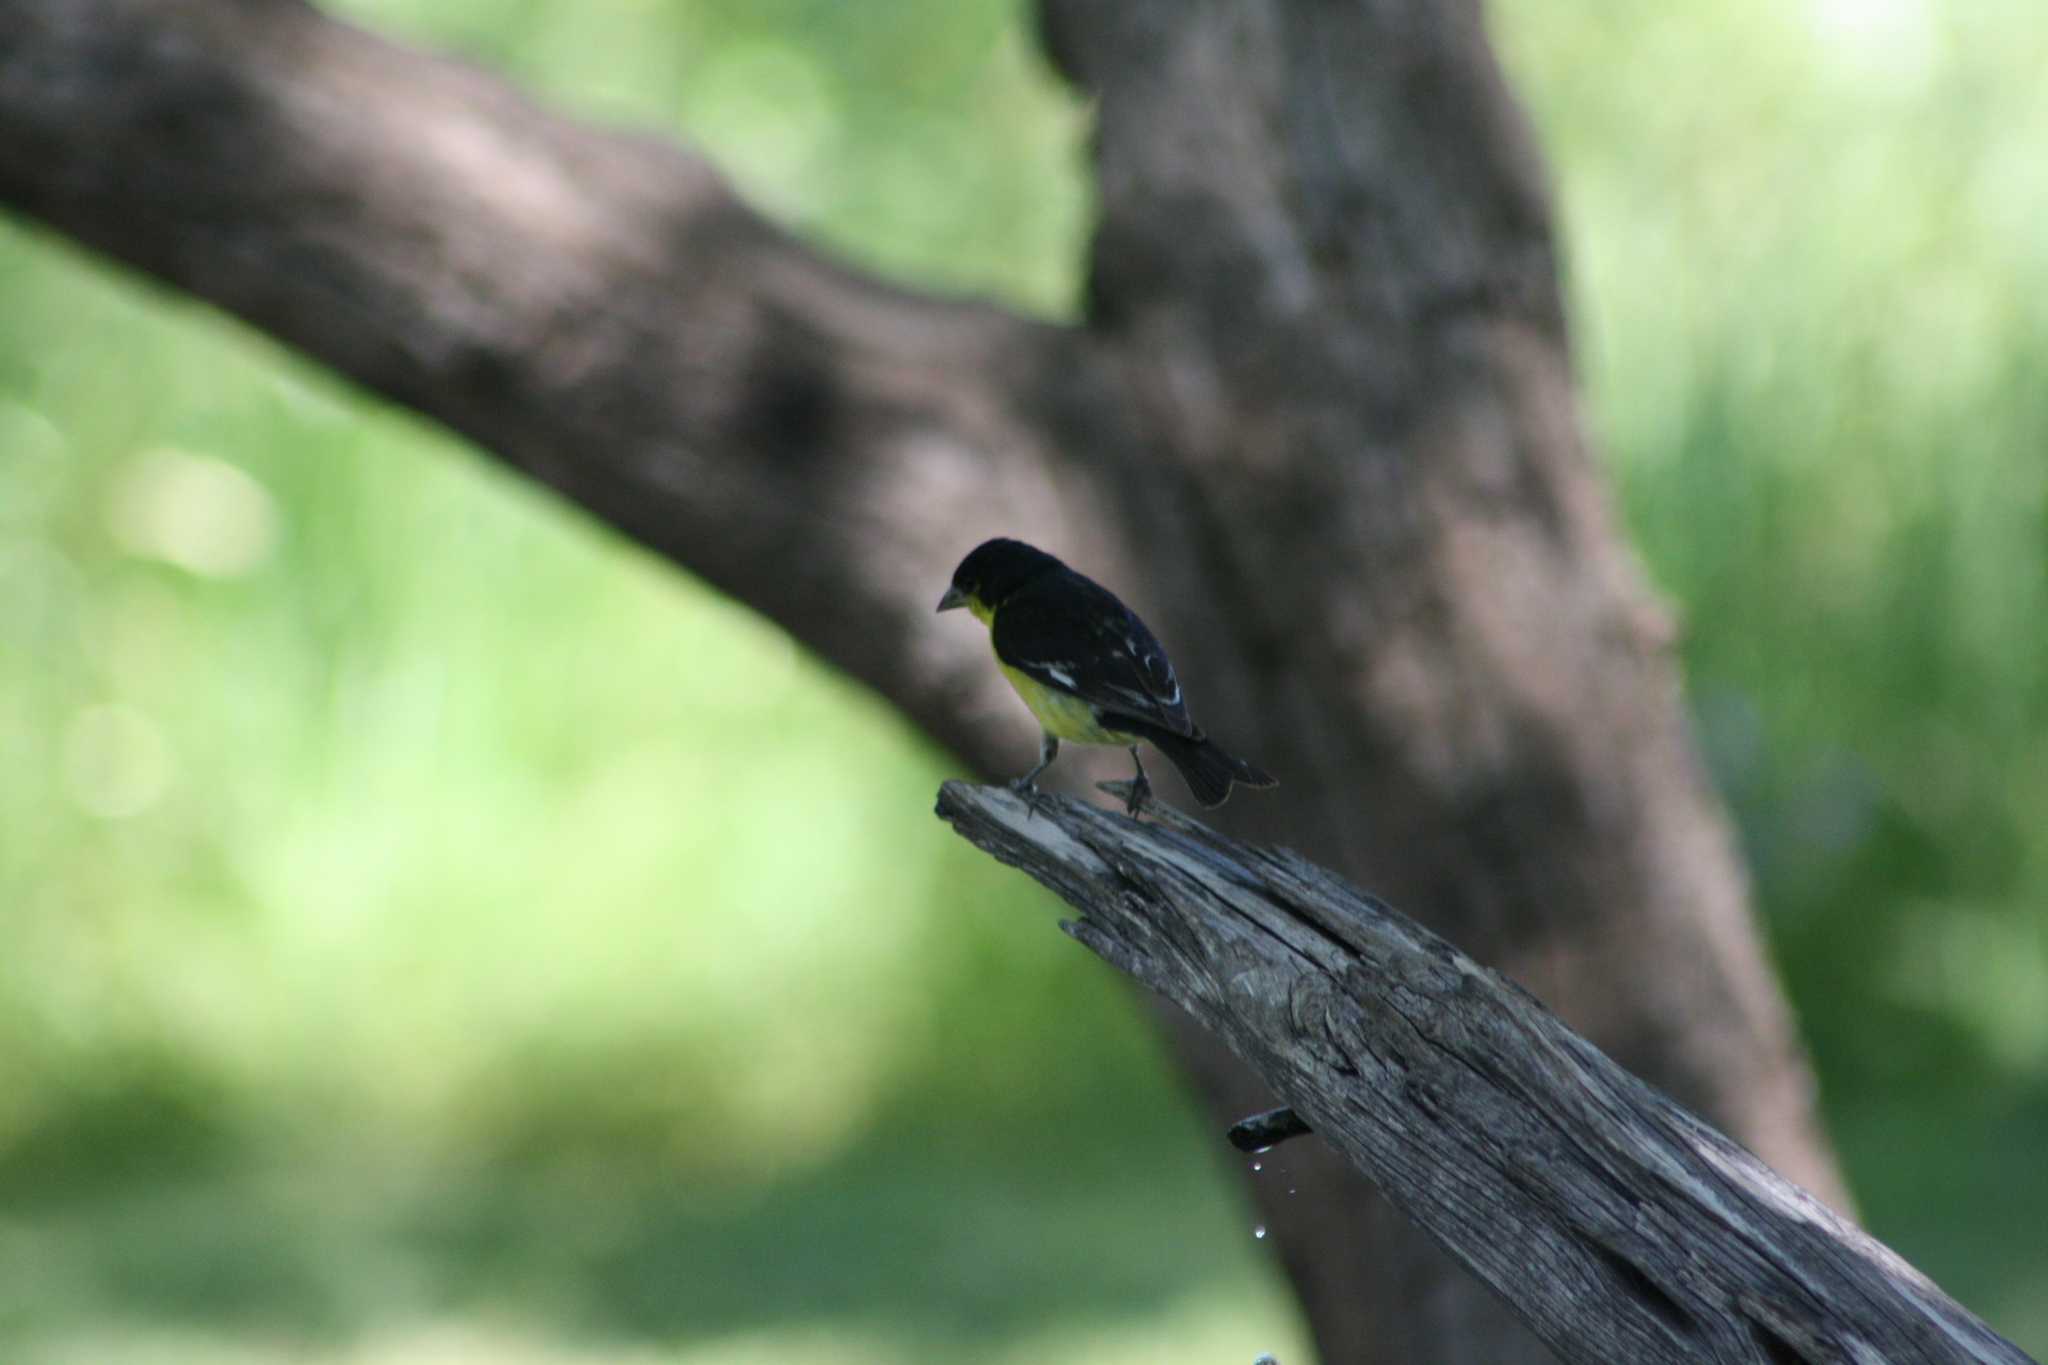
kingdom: Animalia
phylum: Chordata
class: Aves
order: Passeriformes
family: Fringillidae
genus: Spinus
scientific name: Spinus psaltria
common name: Lesser goldfinch
